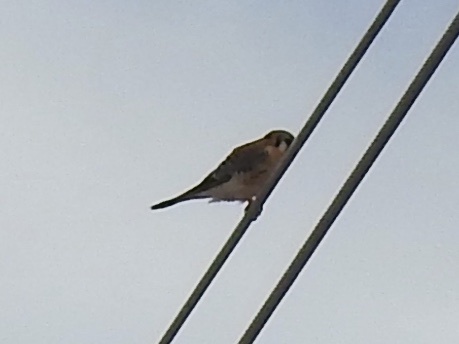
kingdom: Animalia
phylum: Chordata
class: Aves
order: Falconiformes
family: Falconidae
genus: Falco
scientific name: Falco sparverius
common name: American kestrel
